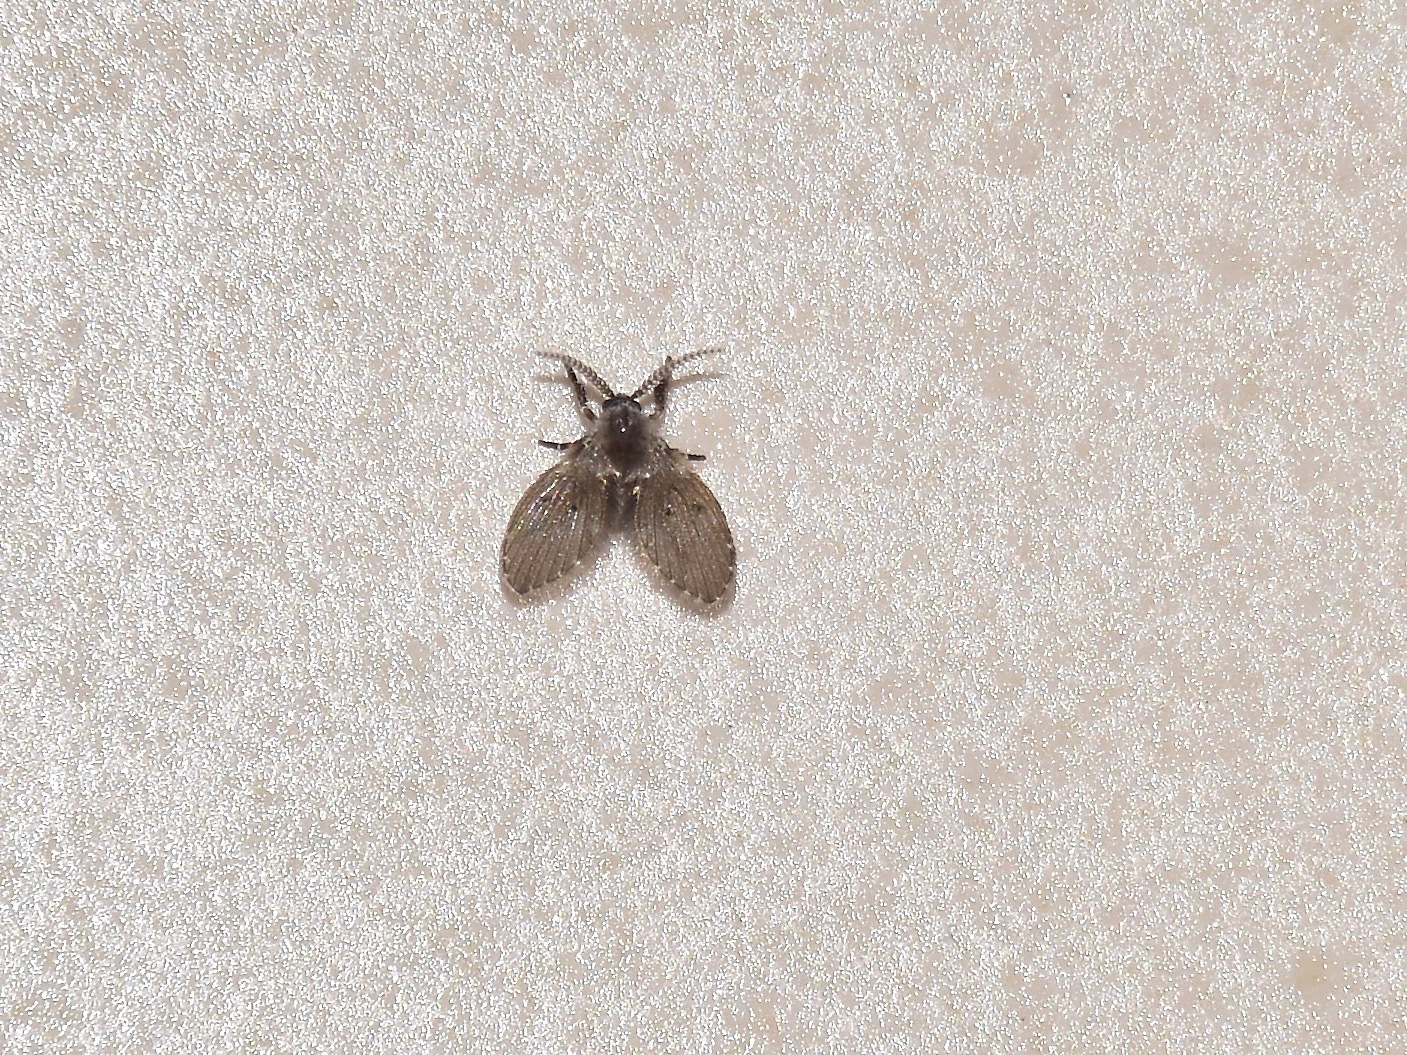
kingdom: Animalia
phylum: Arthropoda
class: Insecta
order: Diptera
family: Psychodidae
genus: Clogmia
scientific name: Clogmia albipunctatus
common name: White-spotted moth fly
